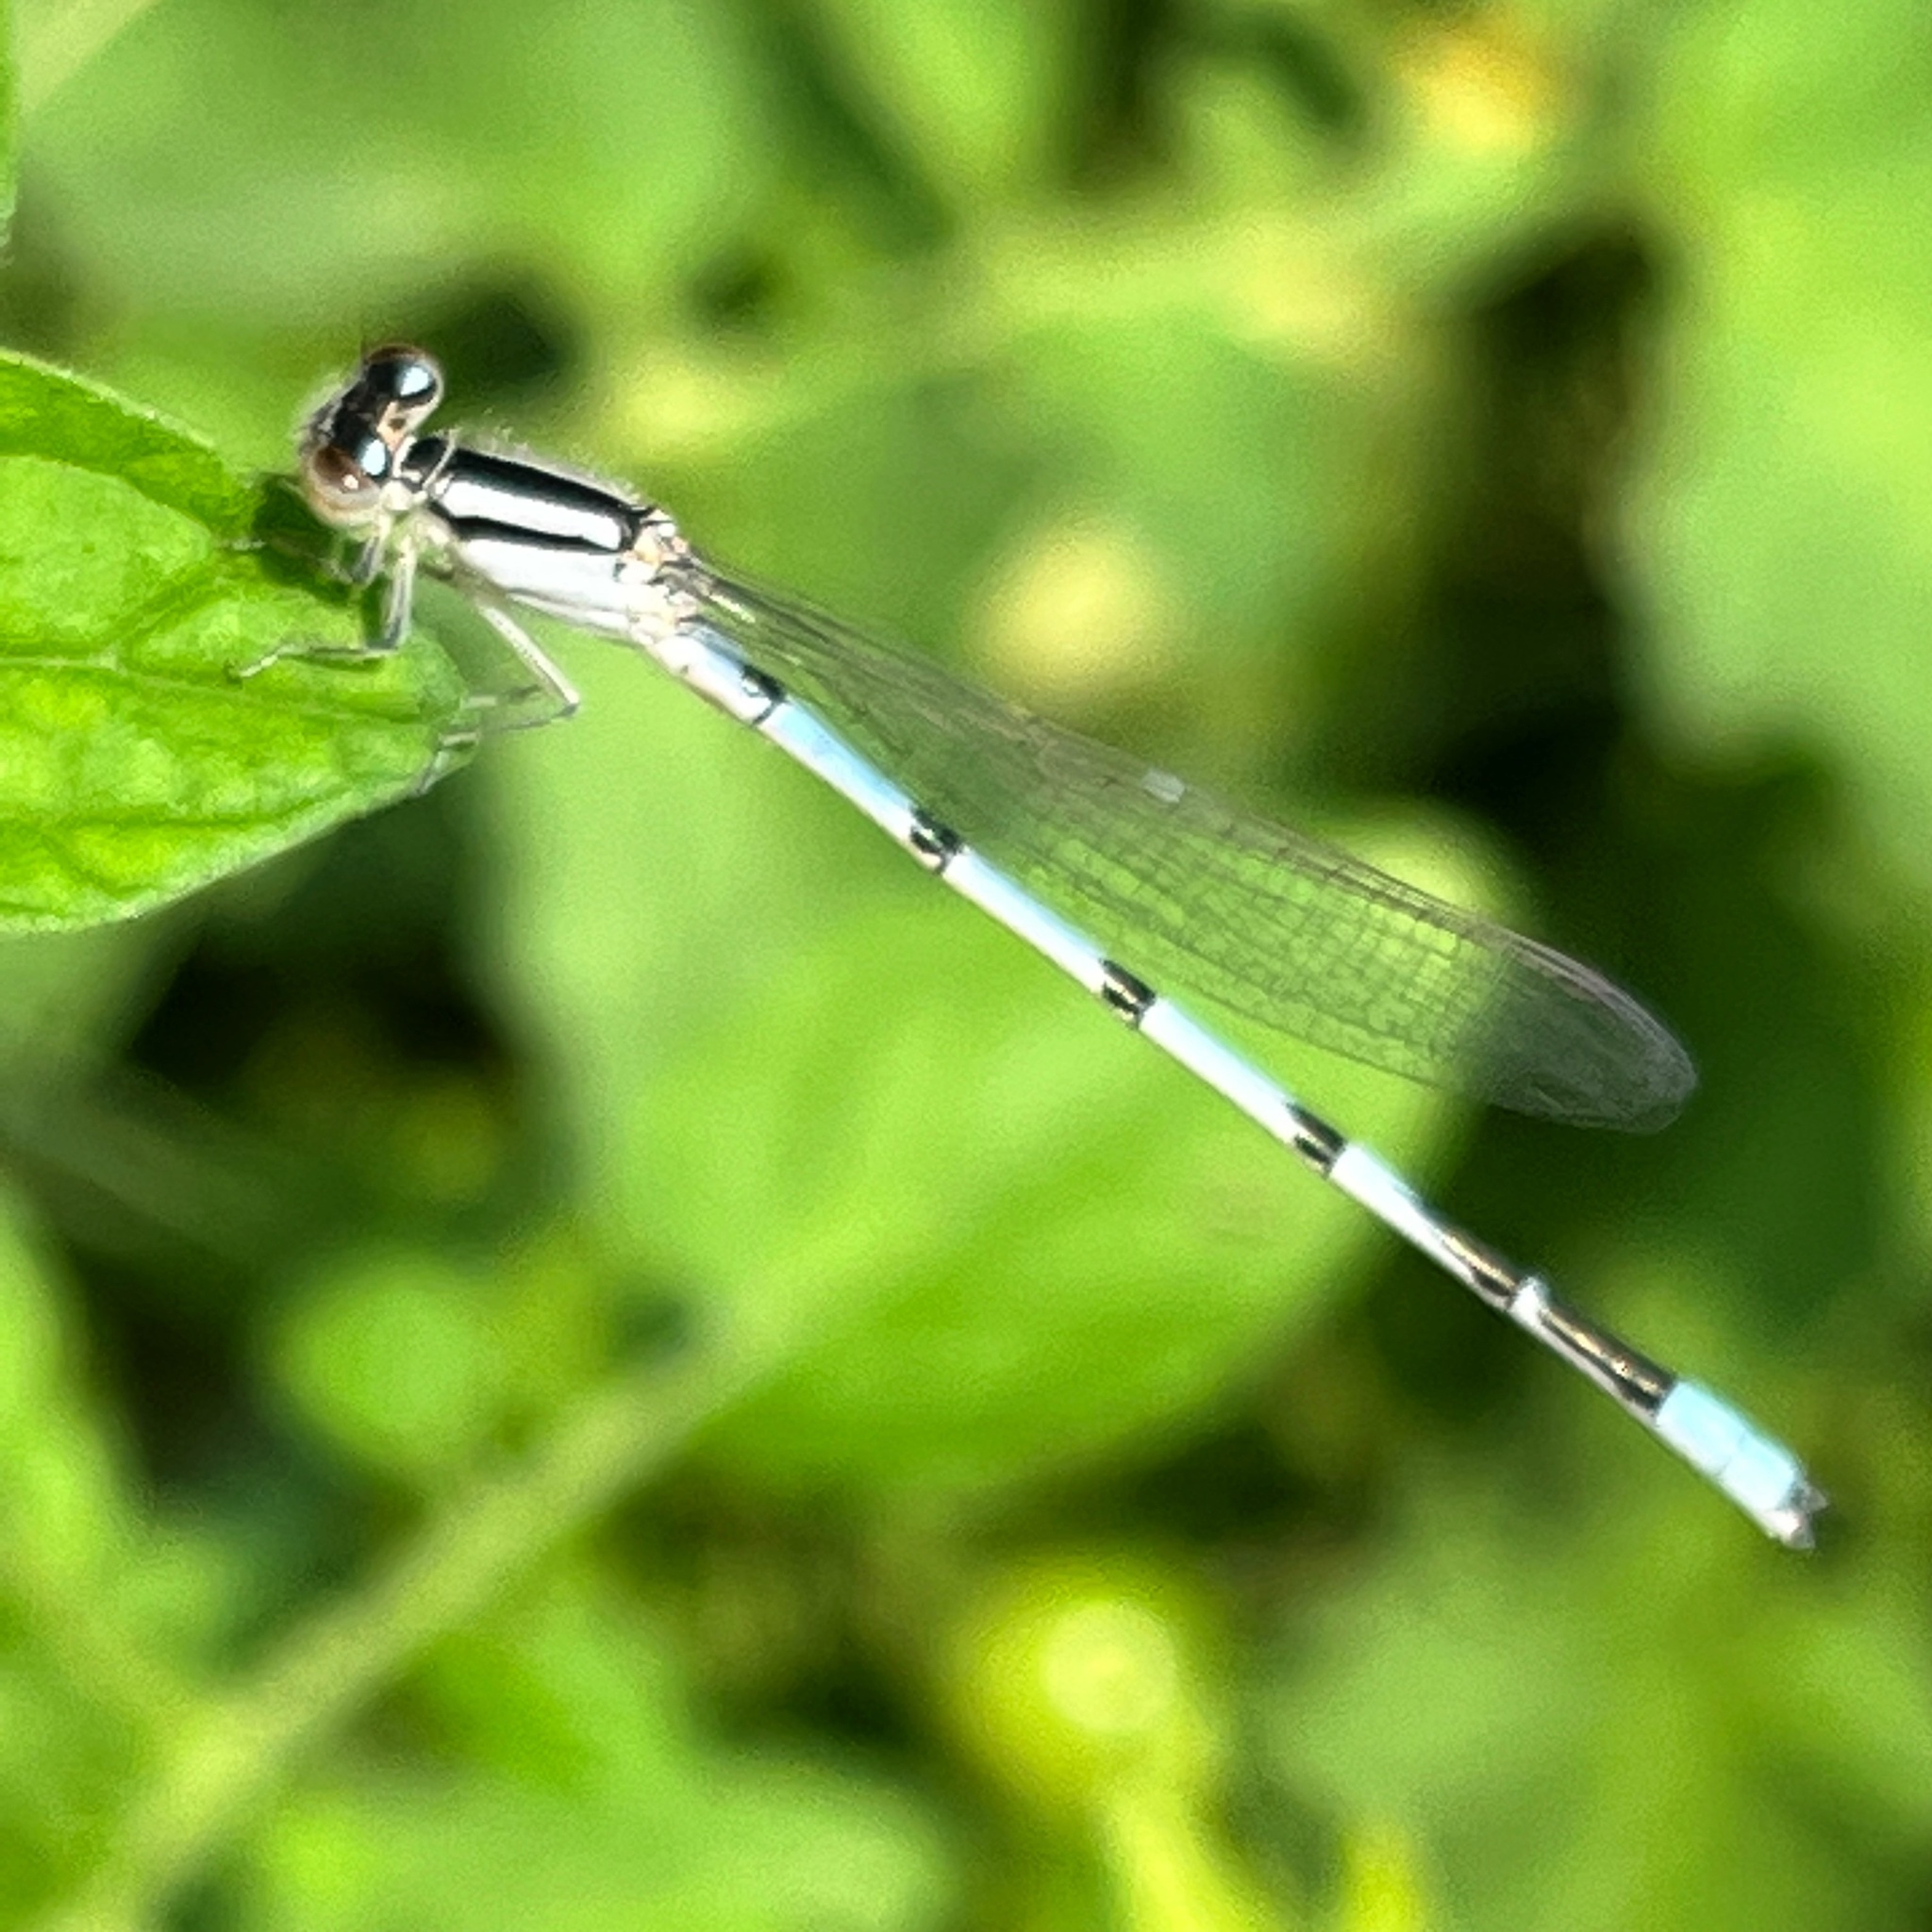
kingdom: Animalia
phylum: Arthropoda
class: Insecta
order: Odonata
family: Coenagrionidae
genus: Enallagma
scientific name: Enallagma civile
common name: Damselfly
